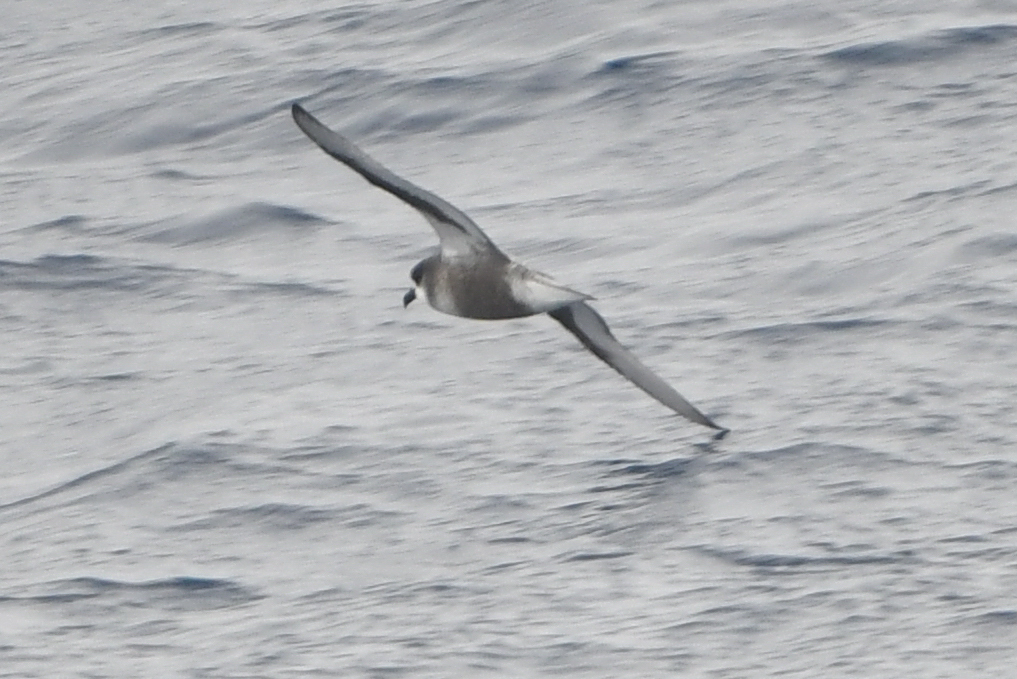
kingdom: Animalia
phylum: Chordata
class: Aves
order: Procellariiformes
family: Procellariidae
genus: Pterodroma
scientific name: Pterodroma inexpectata
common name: Mottled petrel
